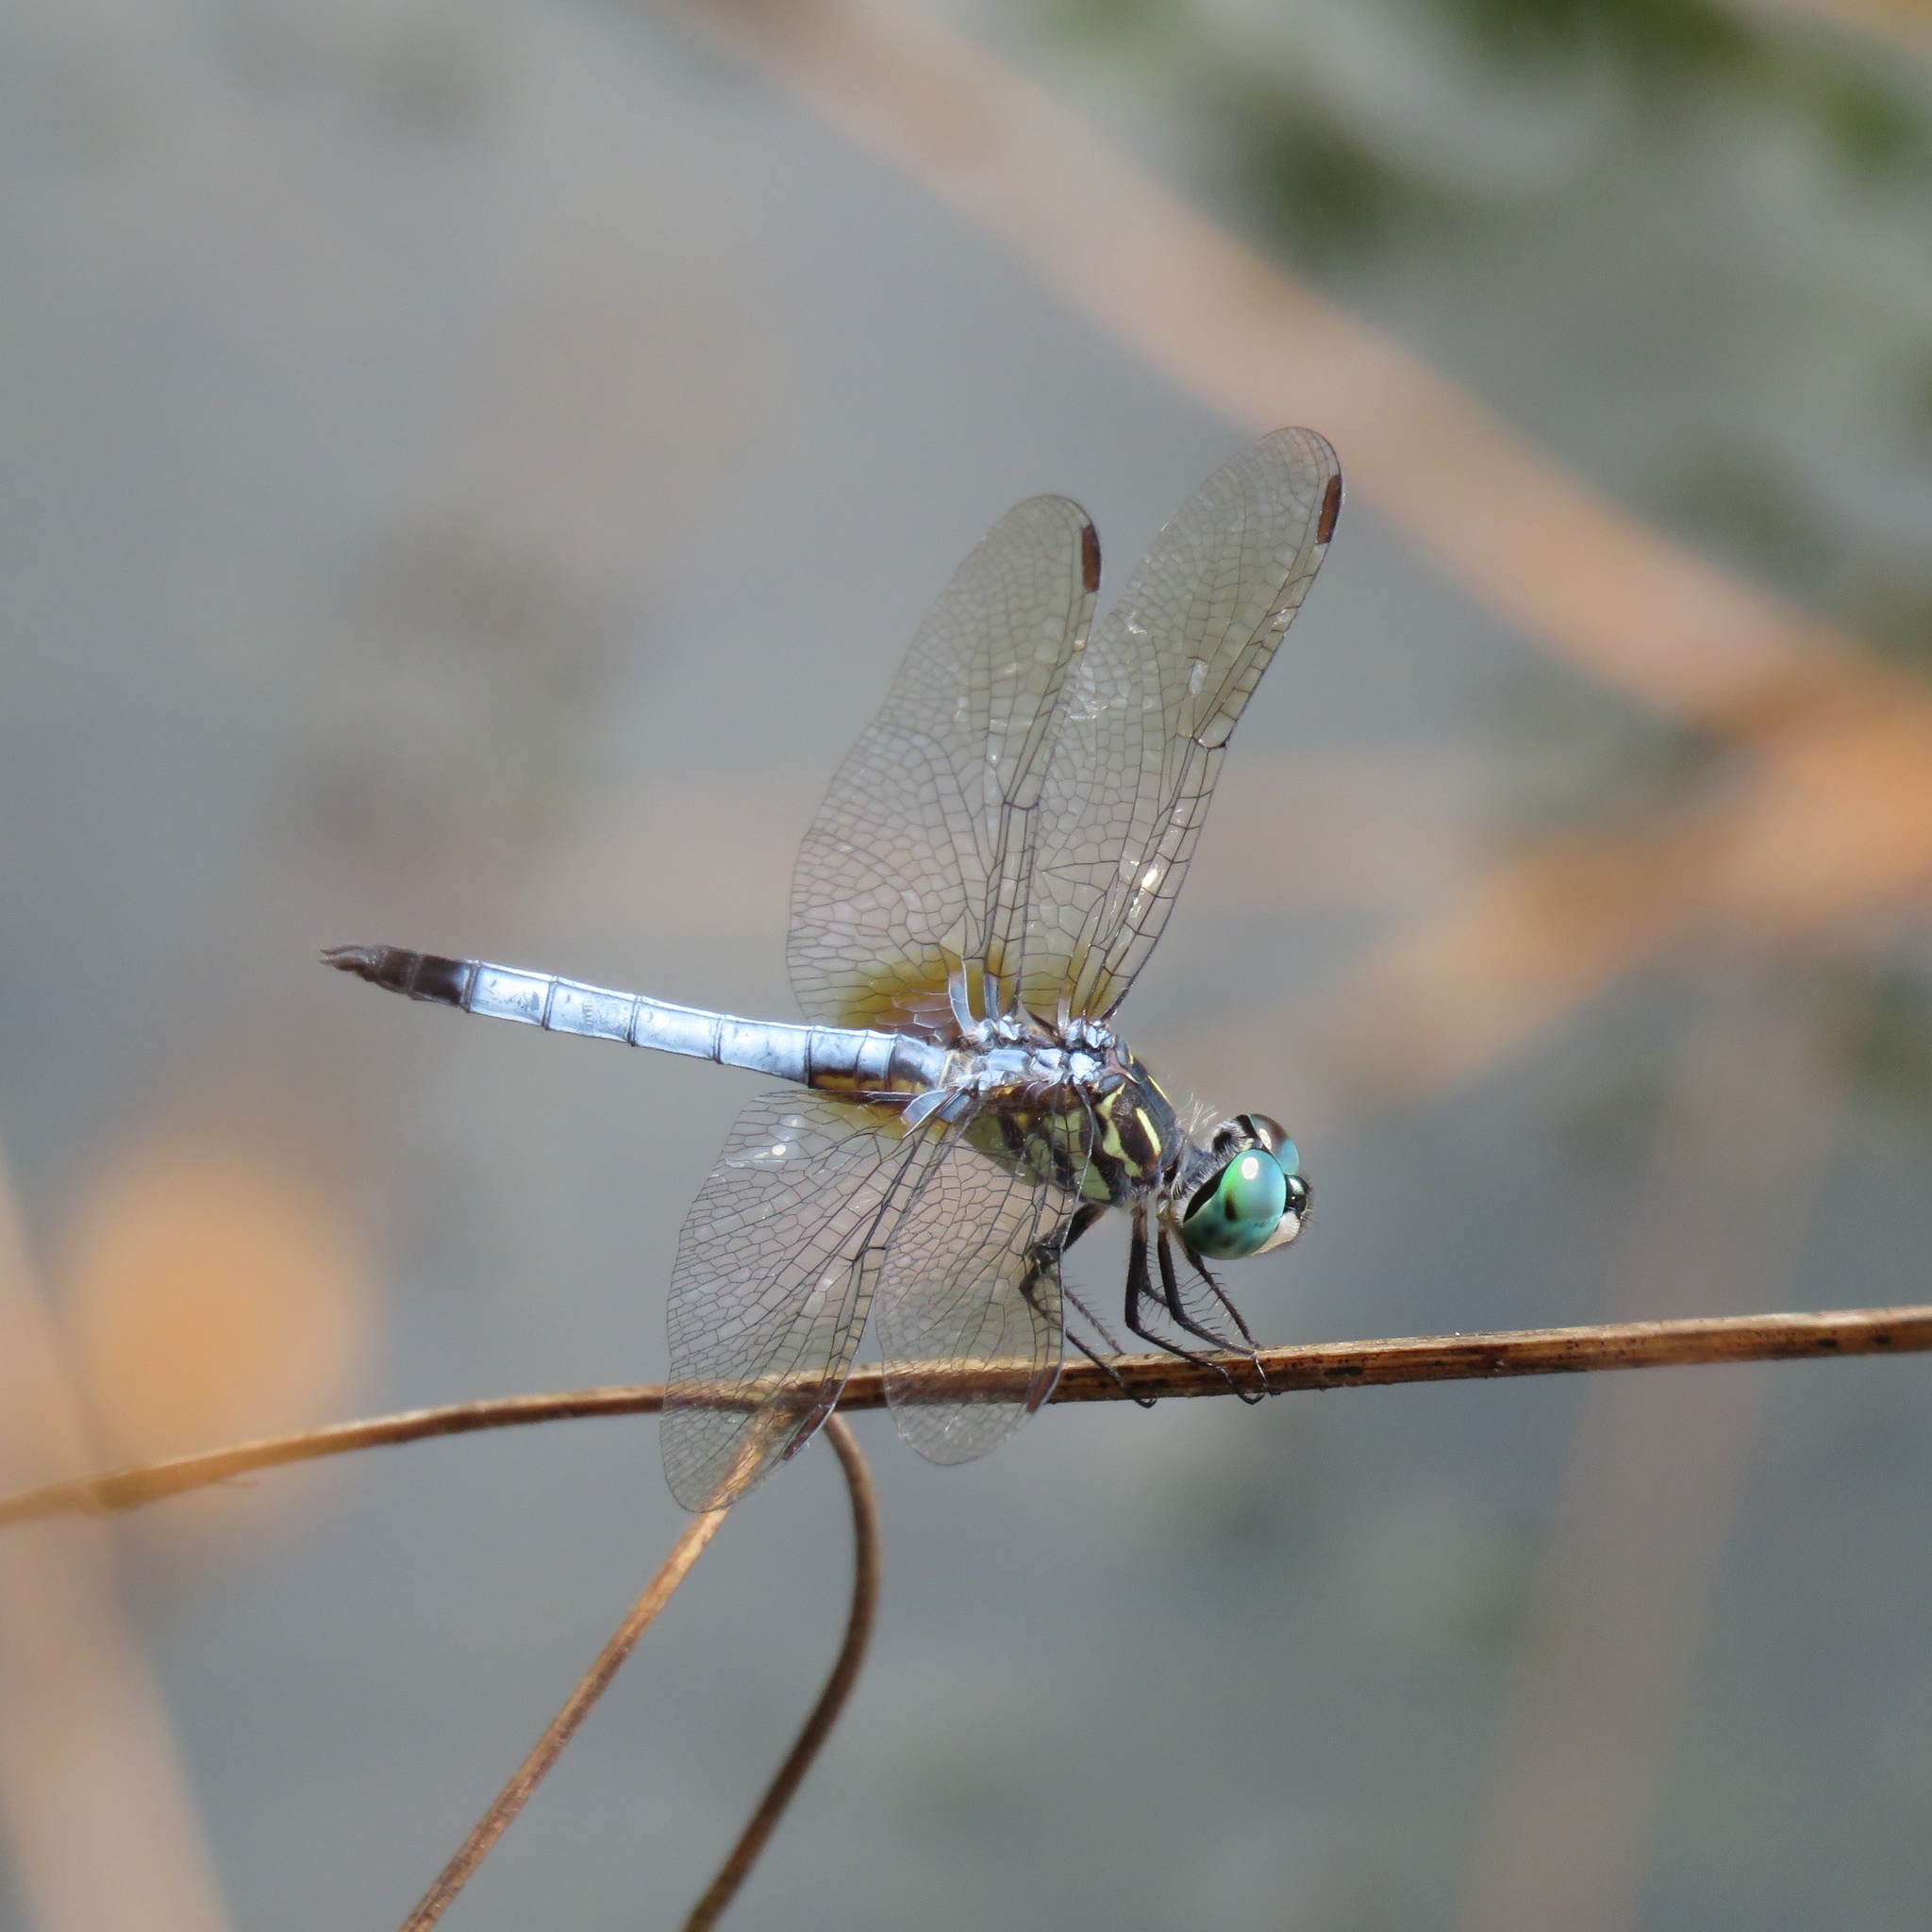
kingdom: Animalia
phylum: Arthropoda
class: Insecta
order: Odonata
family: Libellulidae
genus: Pachydiplax
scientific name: Pachydiplax longipennis
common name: Blue dasher
